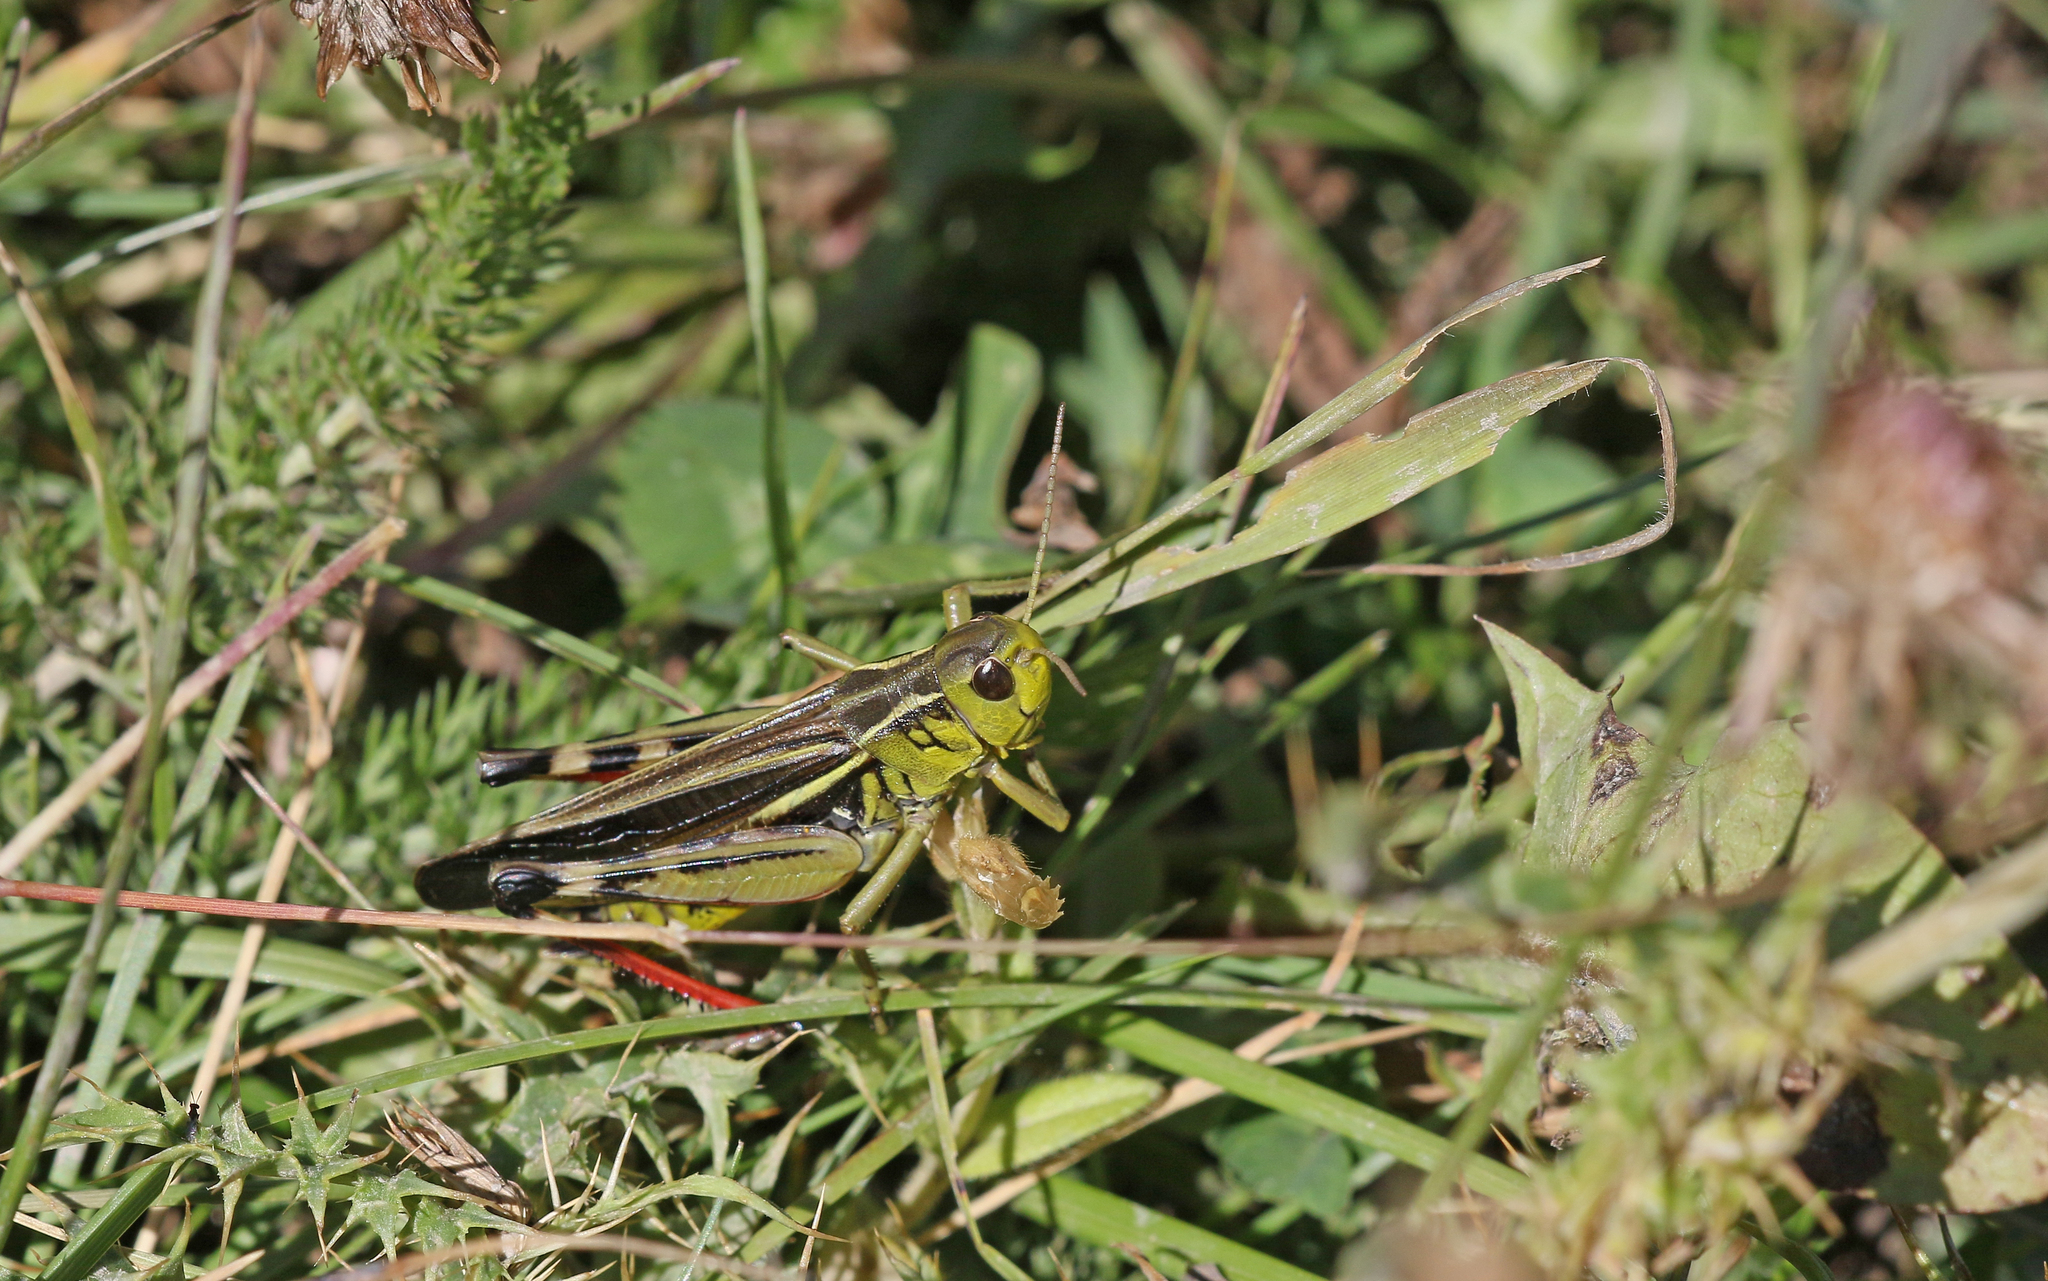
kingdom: Animalia
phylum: Arthropoda
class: Insecta
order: Orthoptera
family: Acrididae
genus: Arcyptera
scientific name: Arcyptera fusca
